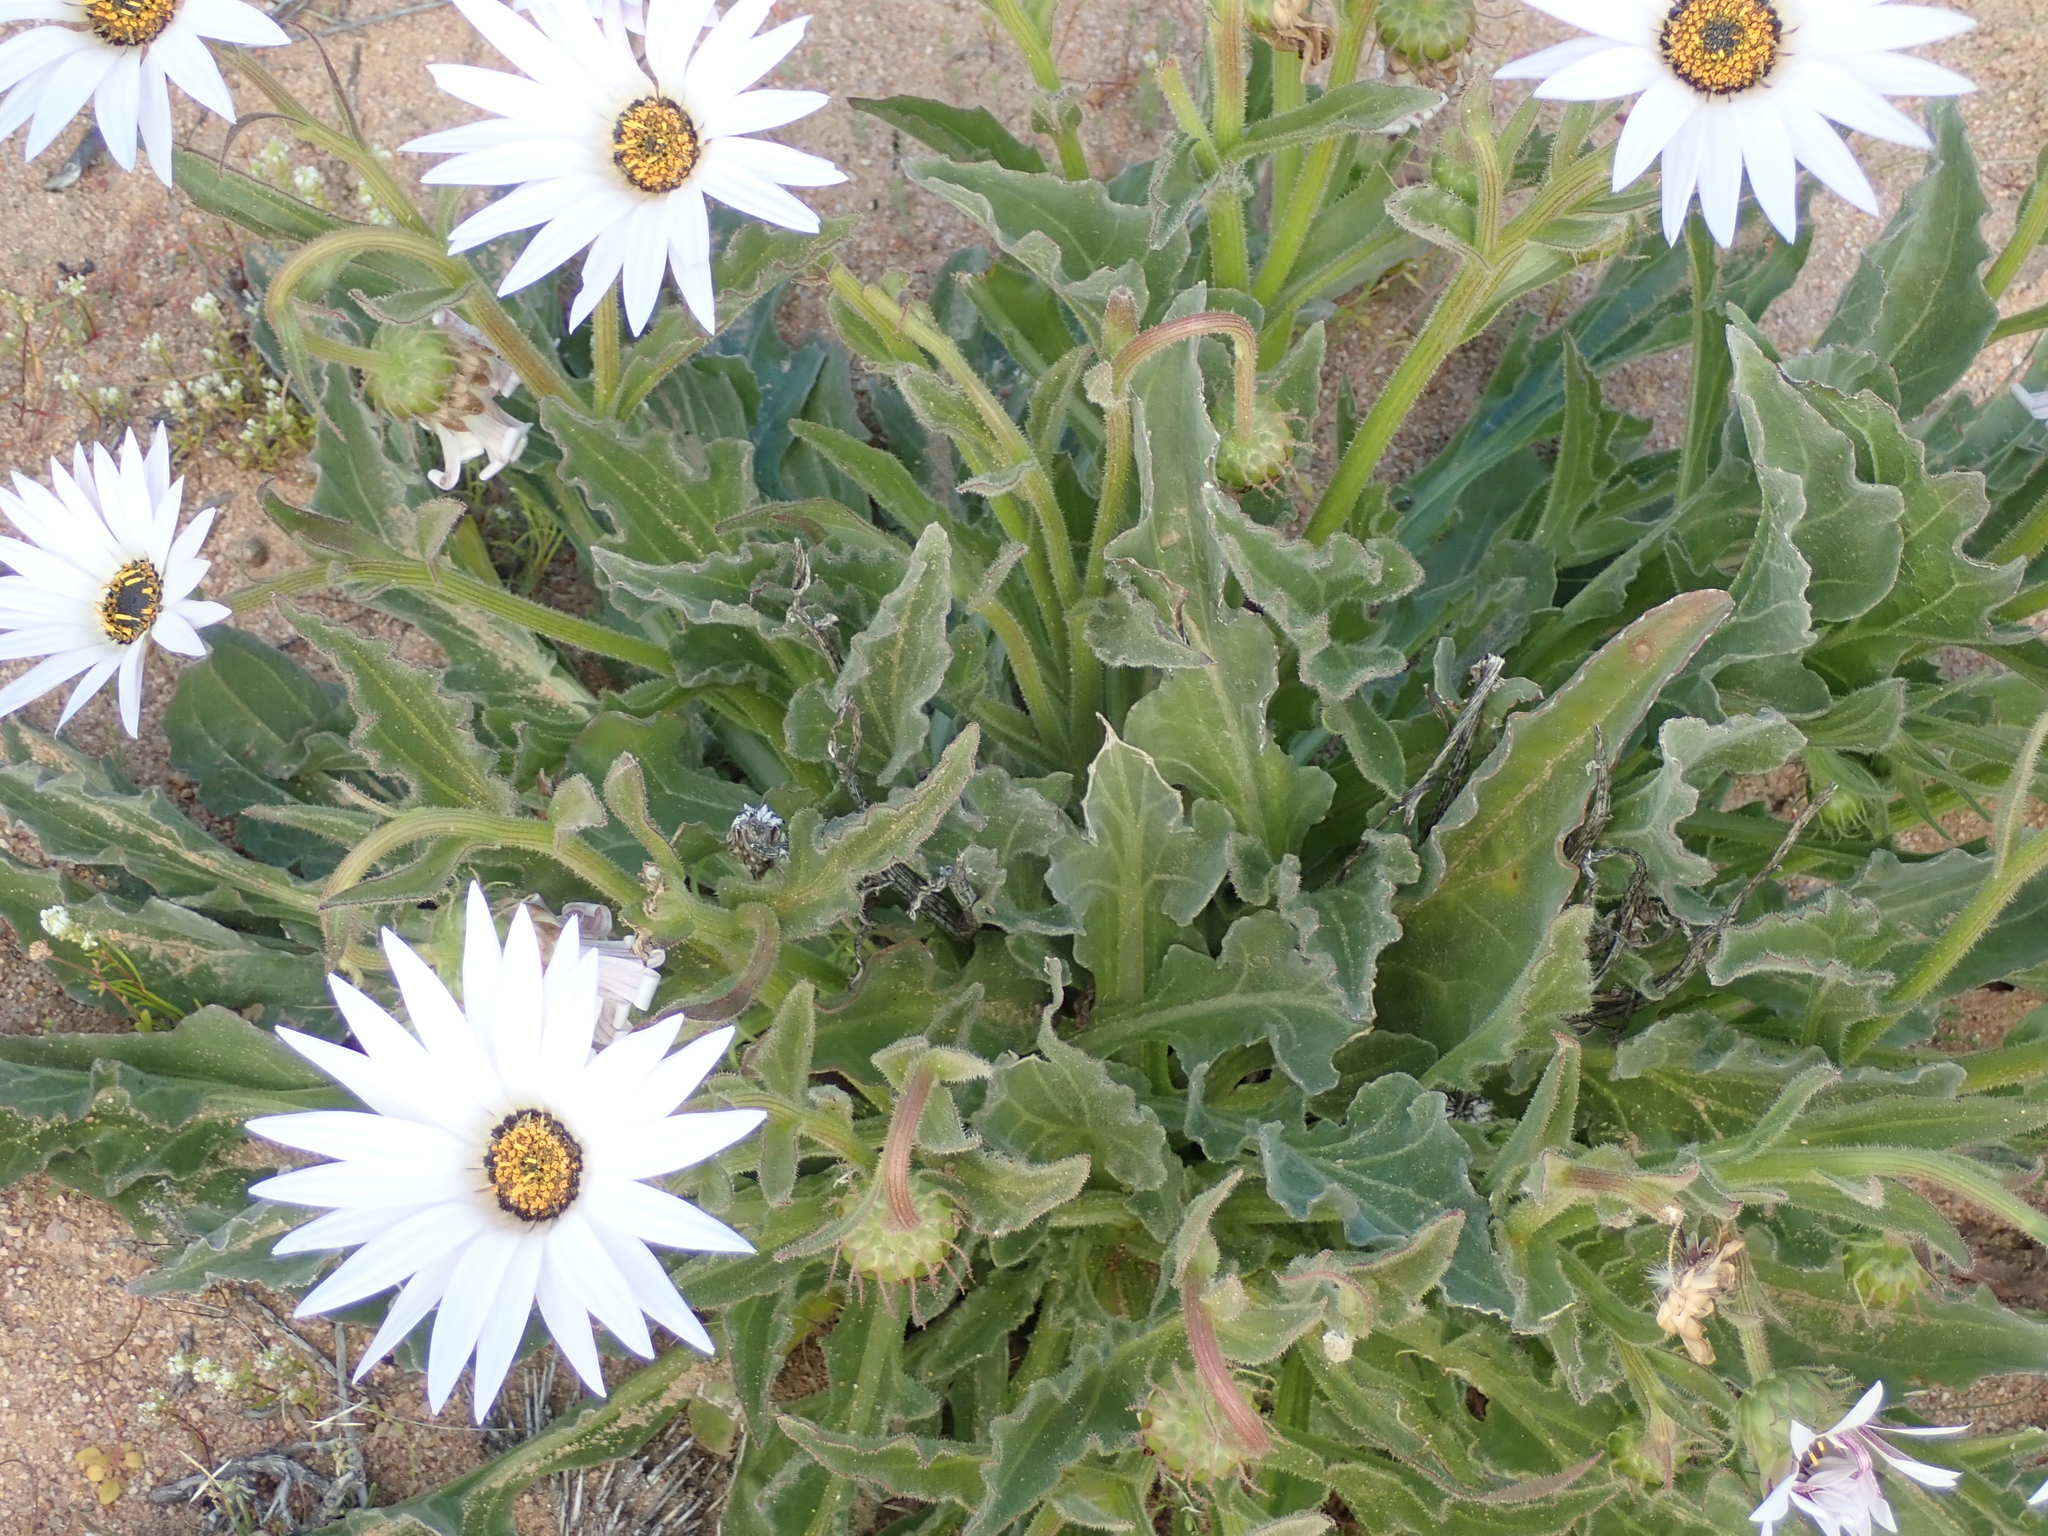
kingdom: Plantae
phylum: Tracheophyta
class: Magnoliopsida
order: Asterales
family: Asteraceae
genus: Arctotis
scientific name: Arctotis decurrens
